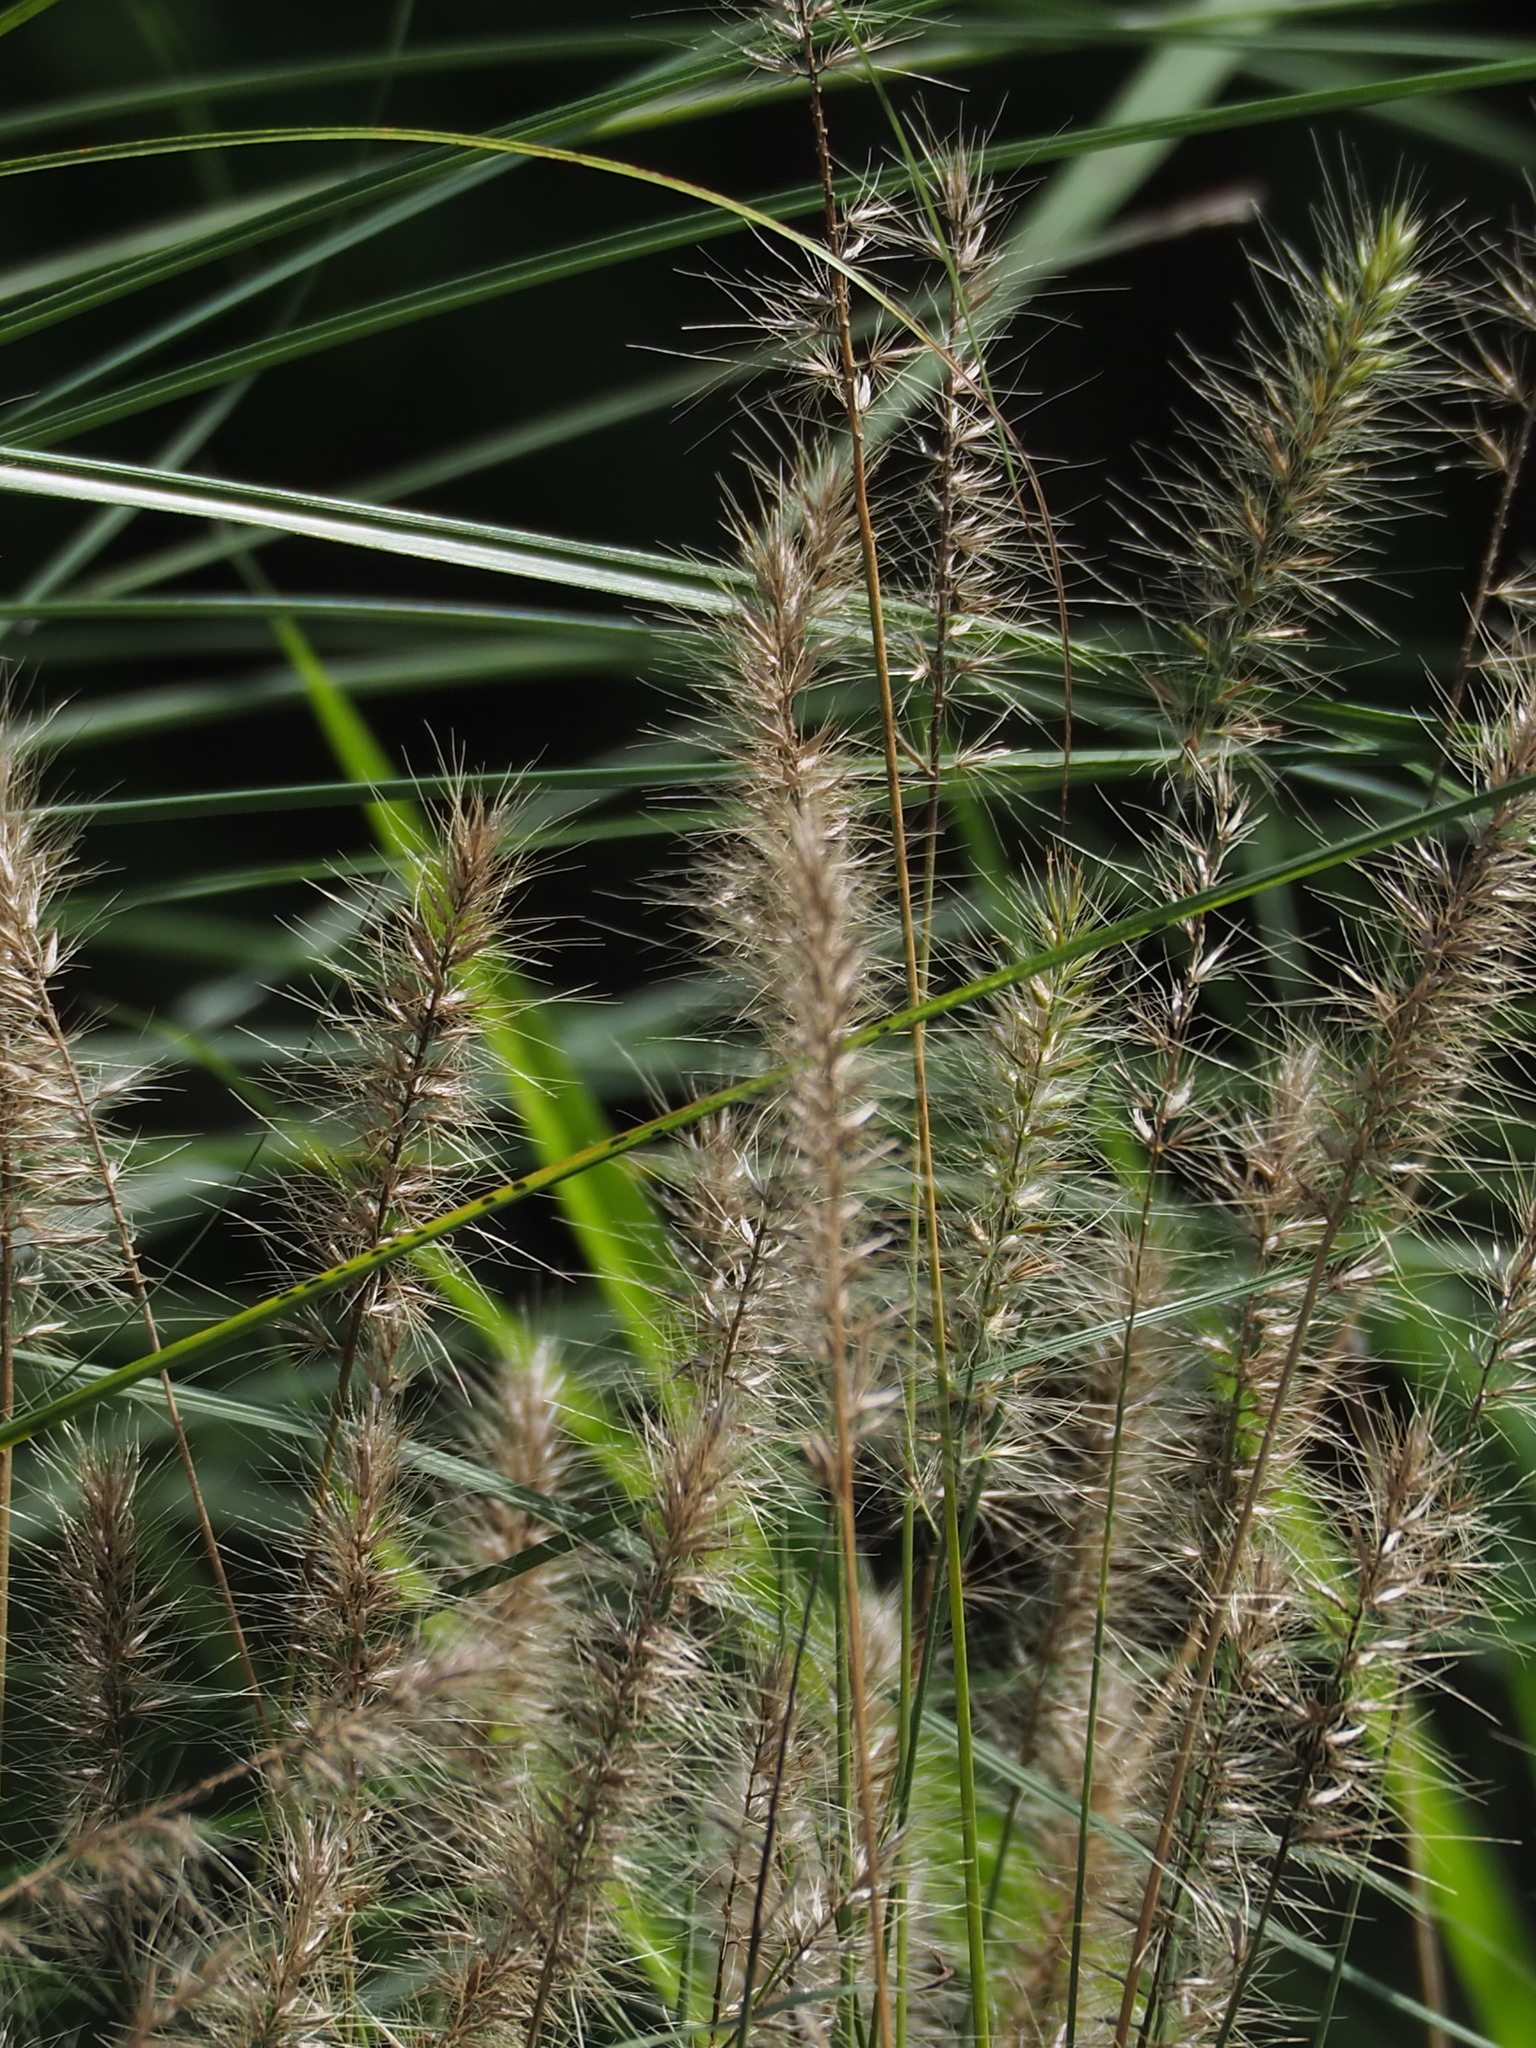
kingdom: Plantae
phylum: Tracheophyta
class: Liliopsida
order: Poales
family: Poaceae
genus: Cenchrus
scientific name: Cenchrus alopecuroides
